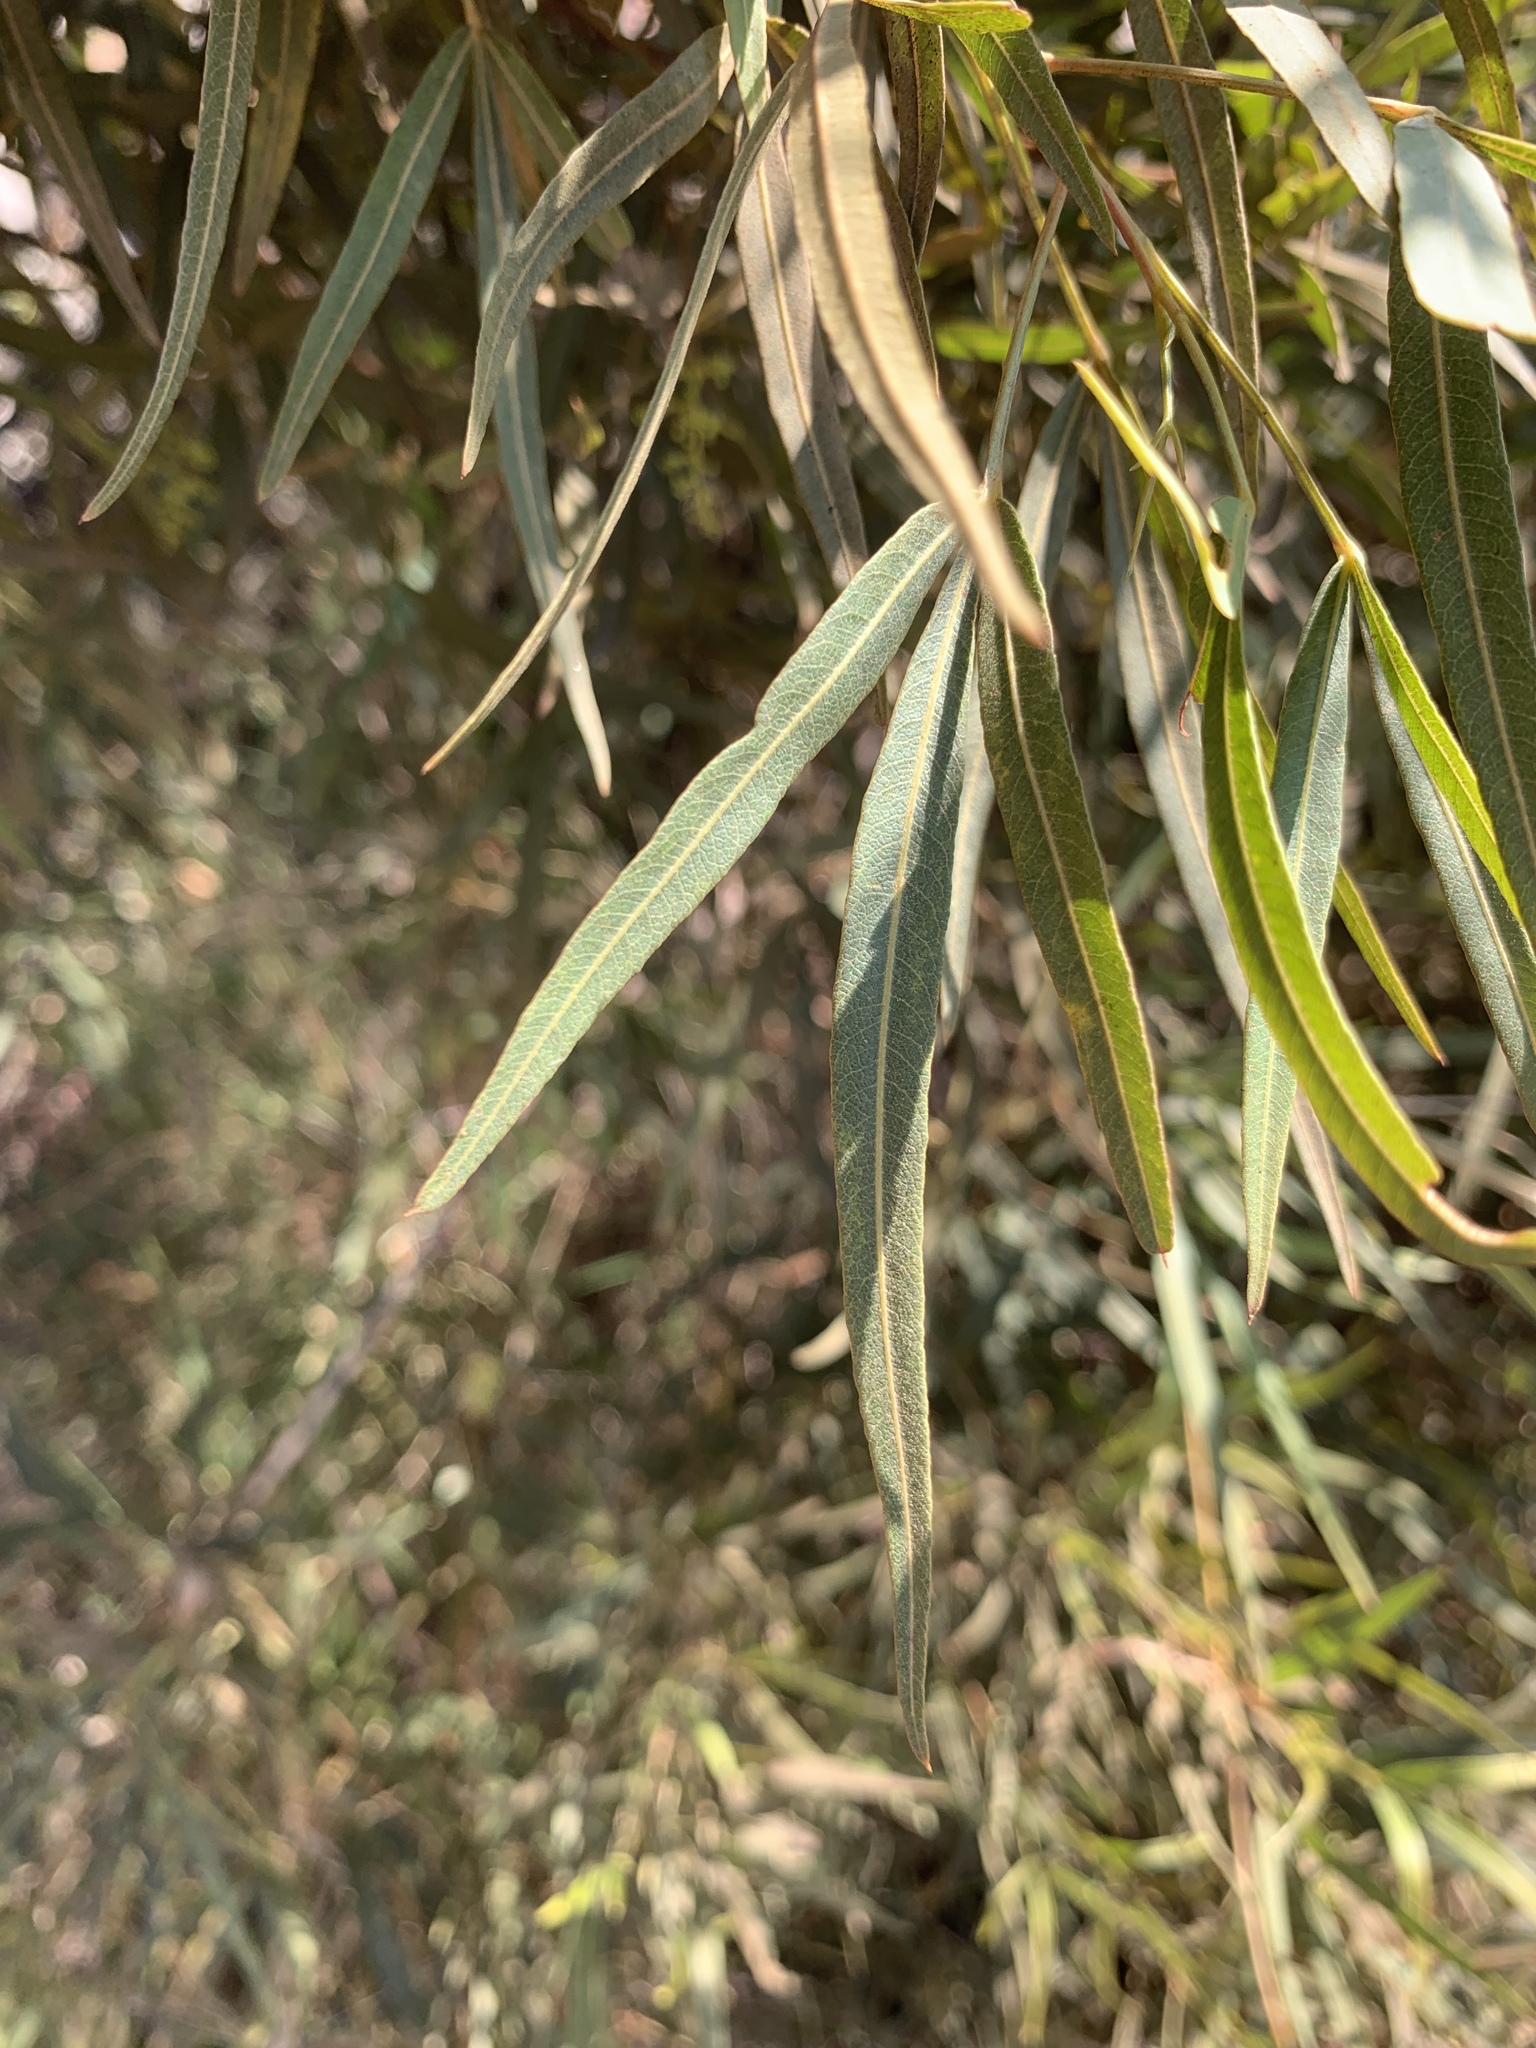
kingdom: Plantae
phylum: Tracheophyta
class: Magnoliopsida
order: Sapindales
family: Anacardiaceae
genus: Searsia
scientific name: Searsia lancea
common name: Cashew
